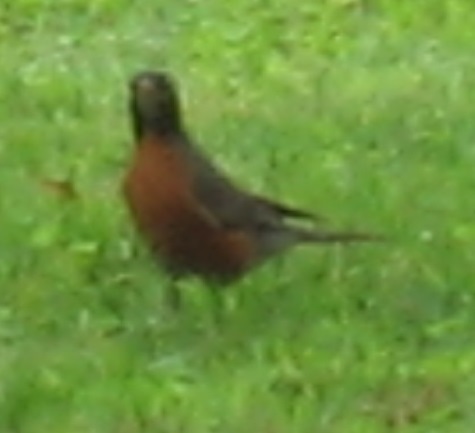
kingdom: Animalia
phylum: Chordata
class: Aves
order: Passeriformes
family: Turdidae
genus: Turdus
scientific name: Turdus migratorius
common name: American robin
